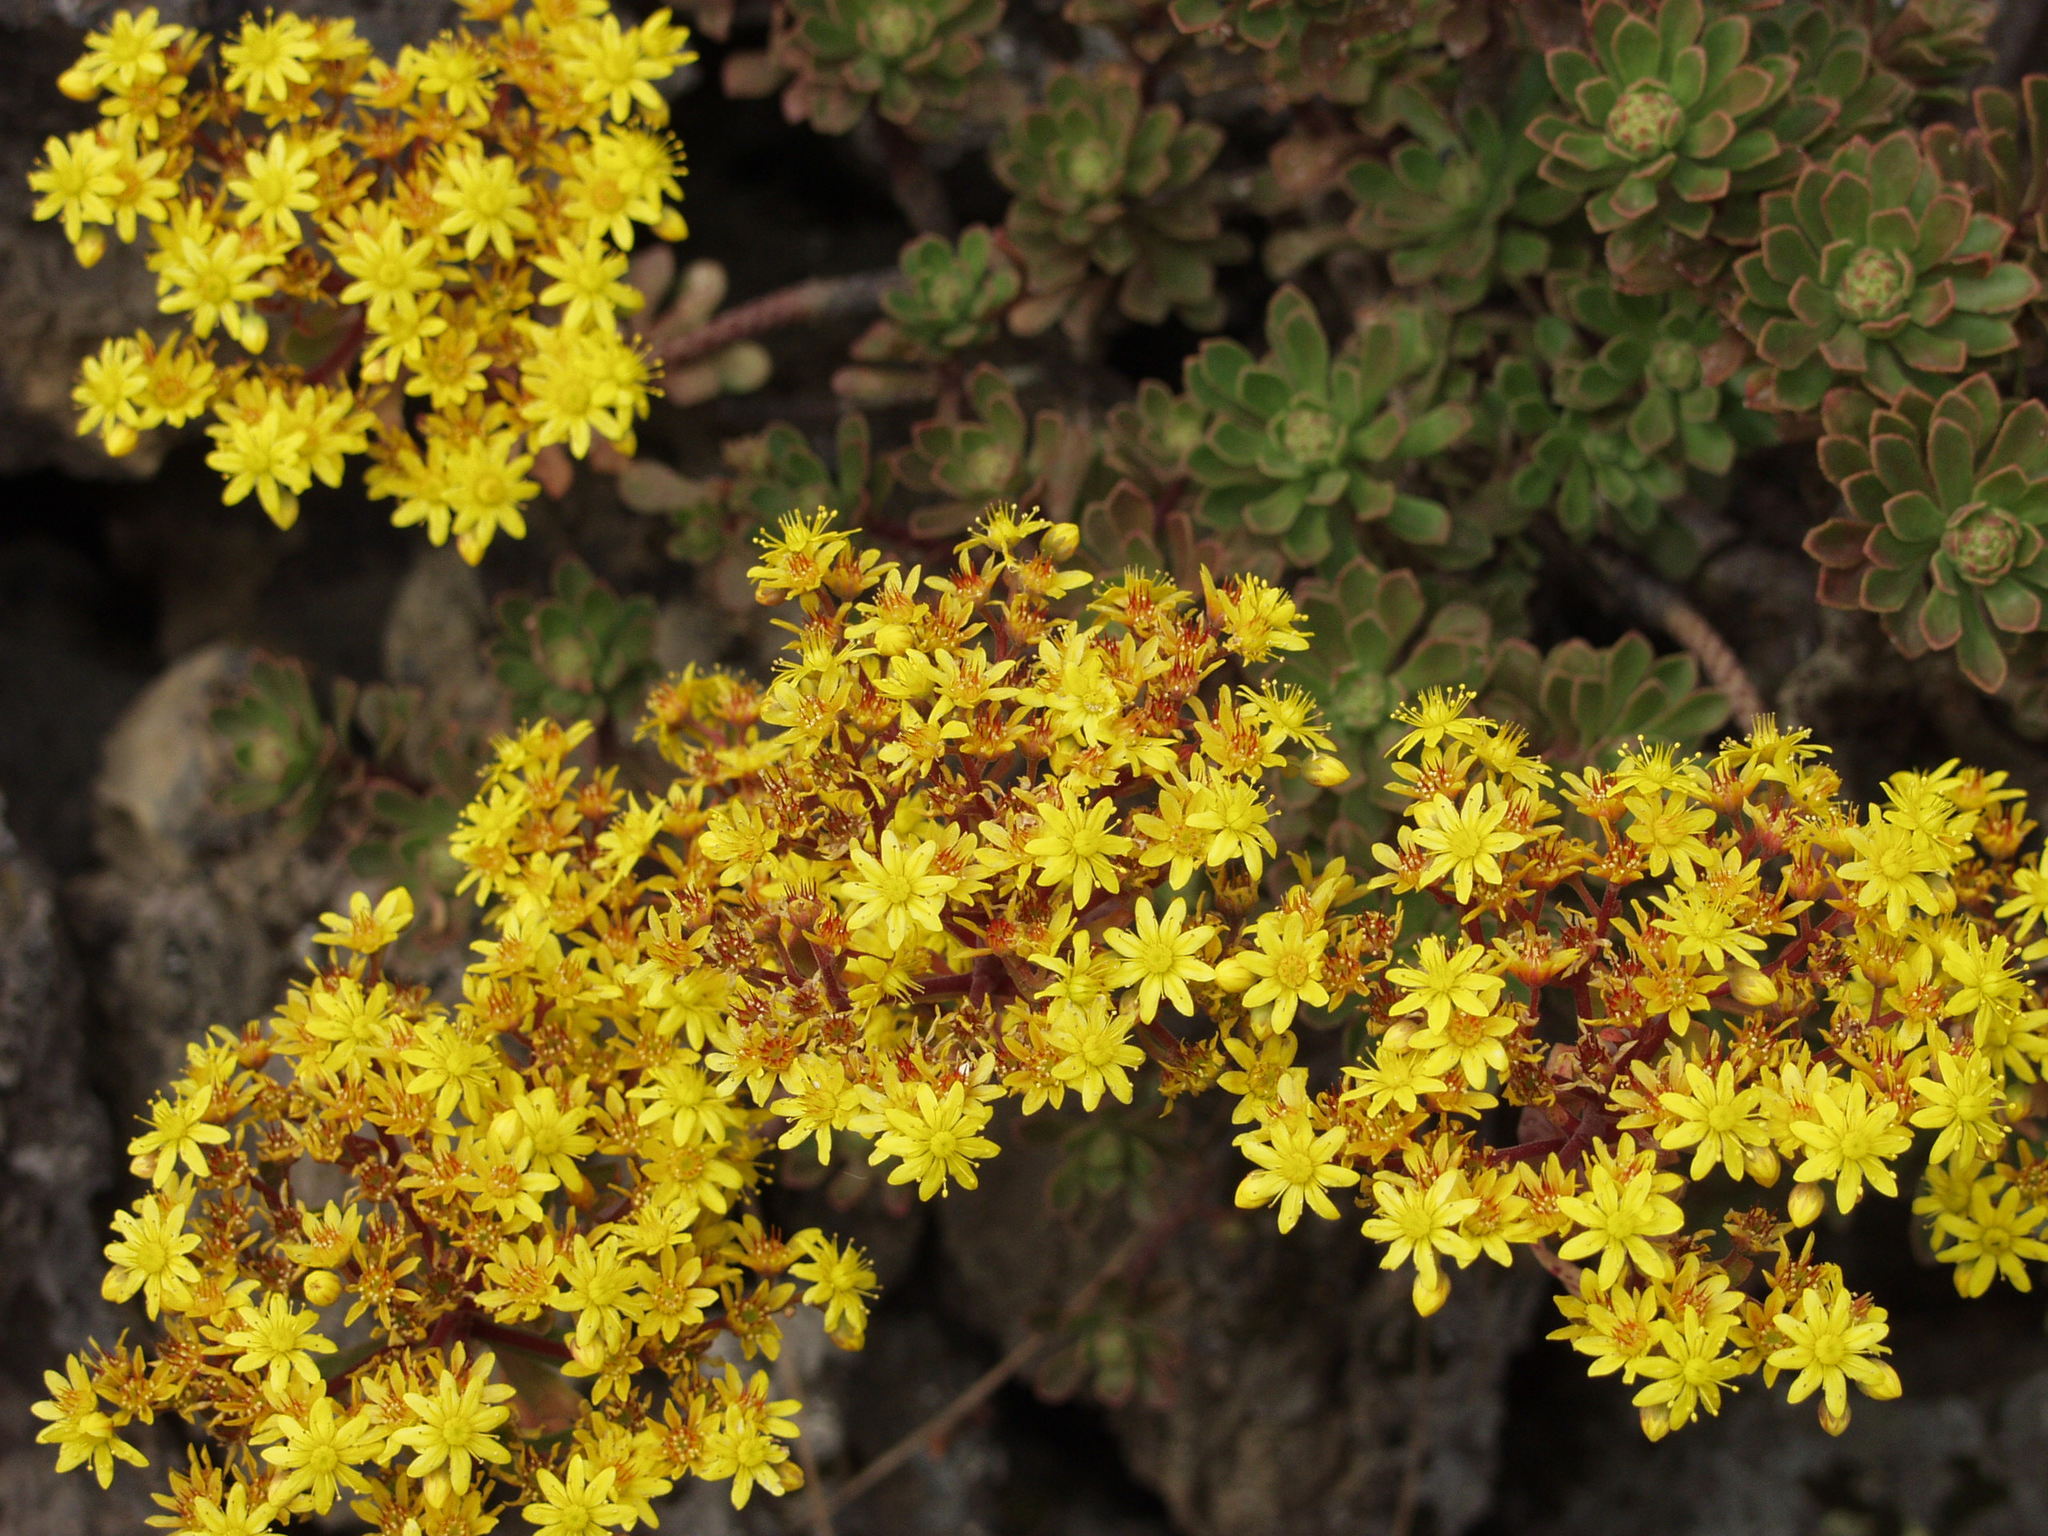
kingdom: Plantae
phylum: Tracheophyta
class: Magnoliopsida
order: Saxifragales
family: Crassulaceae
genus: Aeonium
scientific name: Aeonium spathulatum
